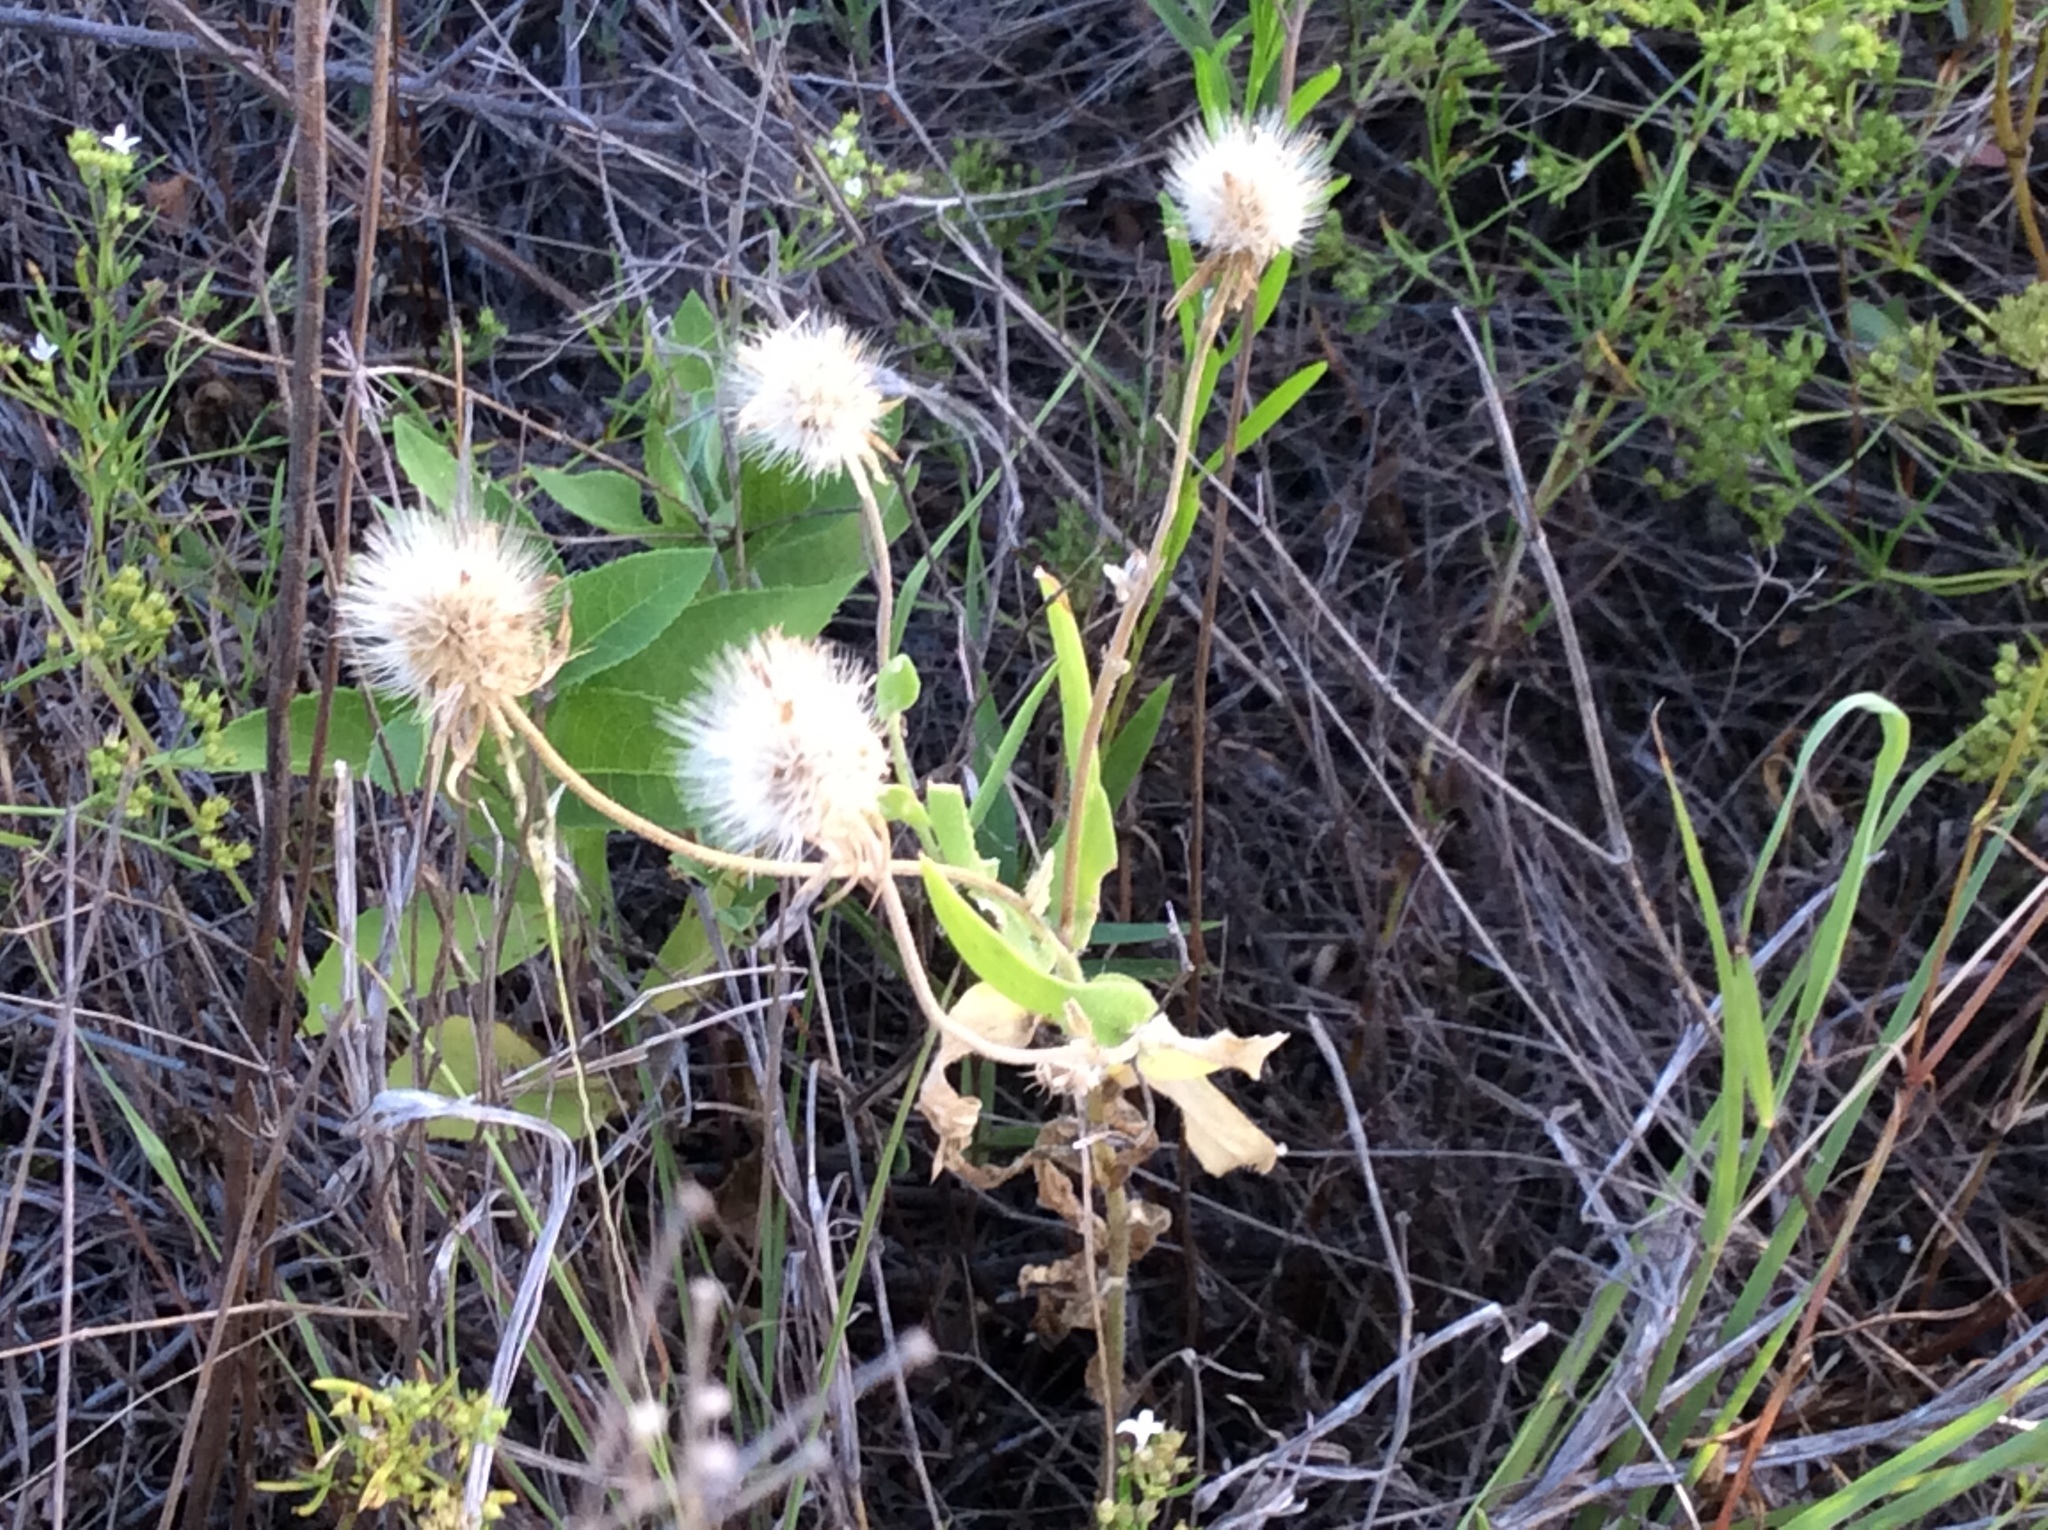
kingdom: Plantae
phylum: Tracheophyta
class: Magnoliopsida
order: Asterales
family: Asteraceae
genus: Gaillardia
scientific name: Gaillardia pulchella
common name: Firewheel
